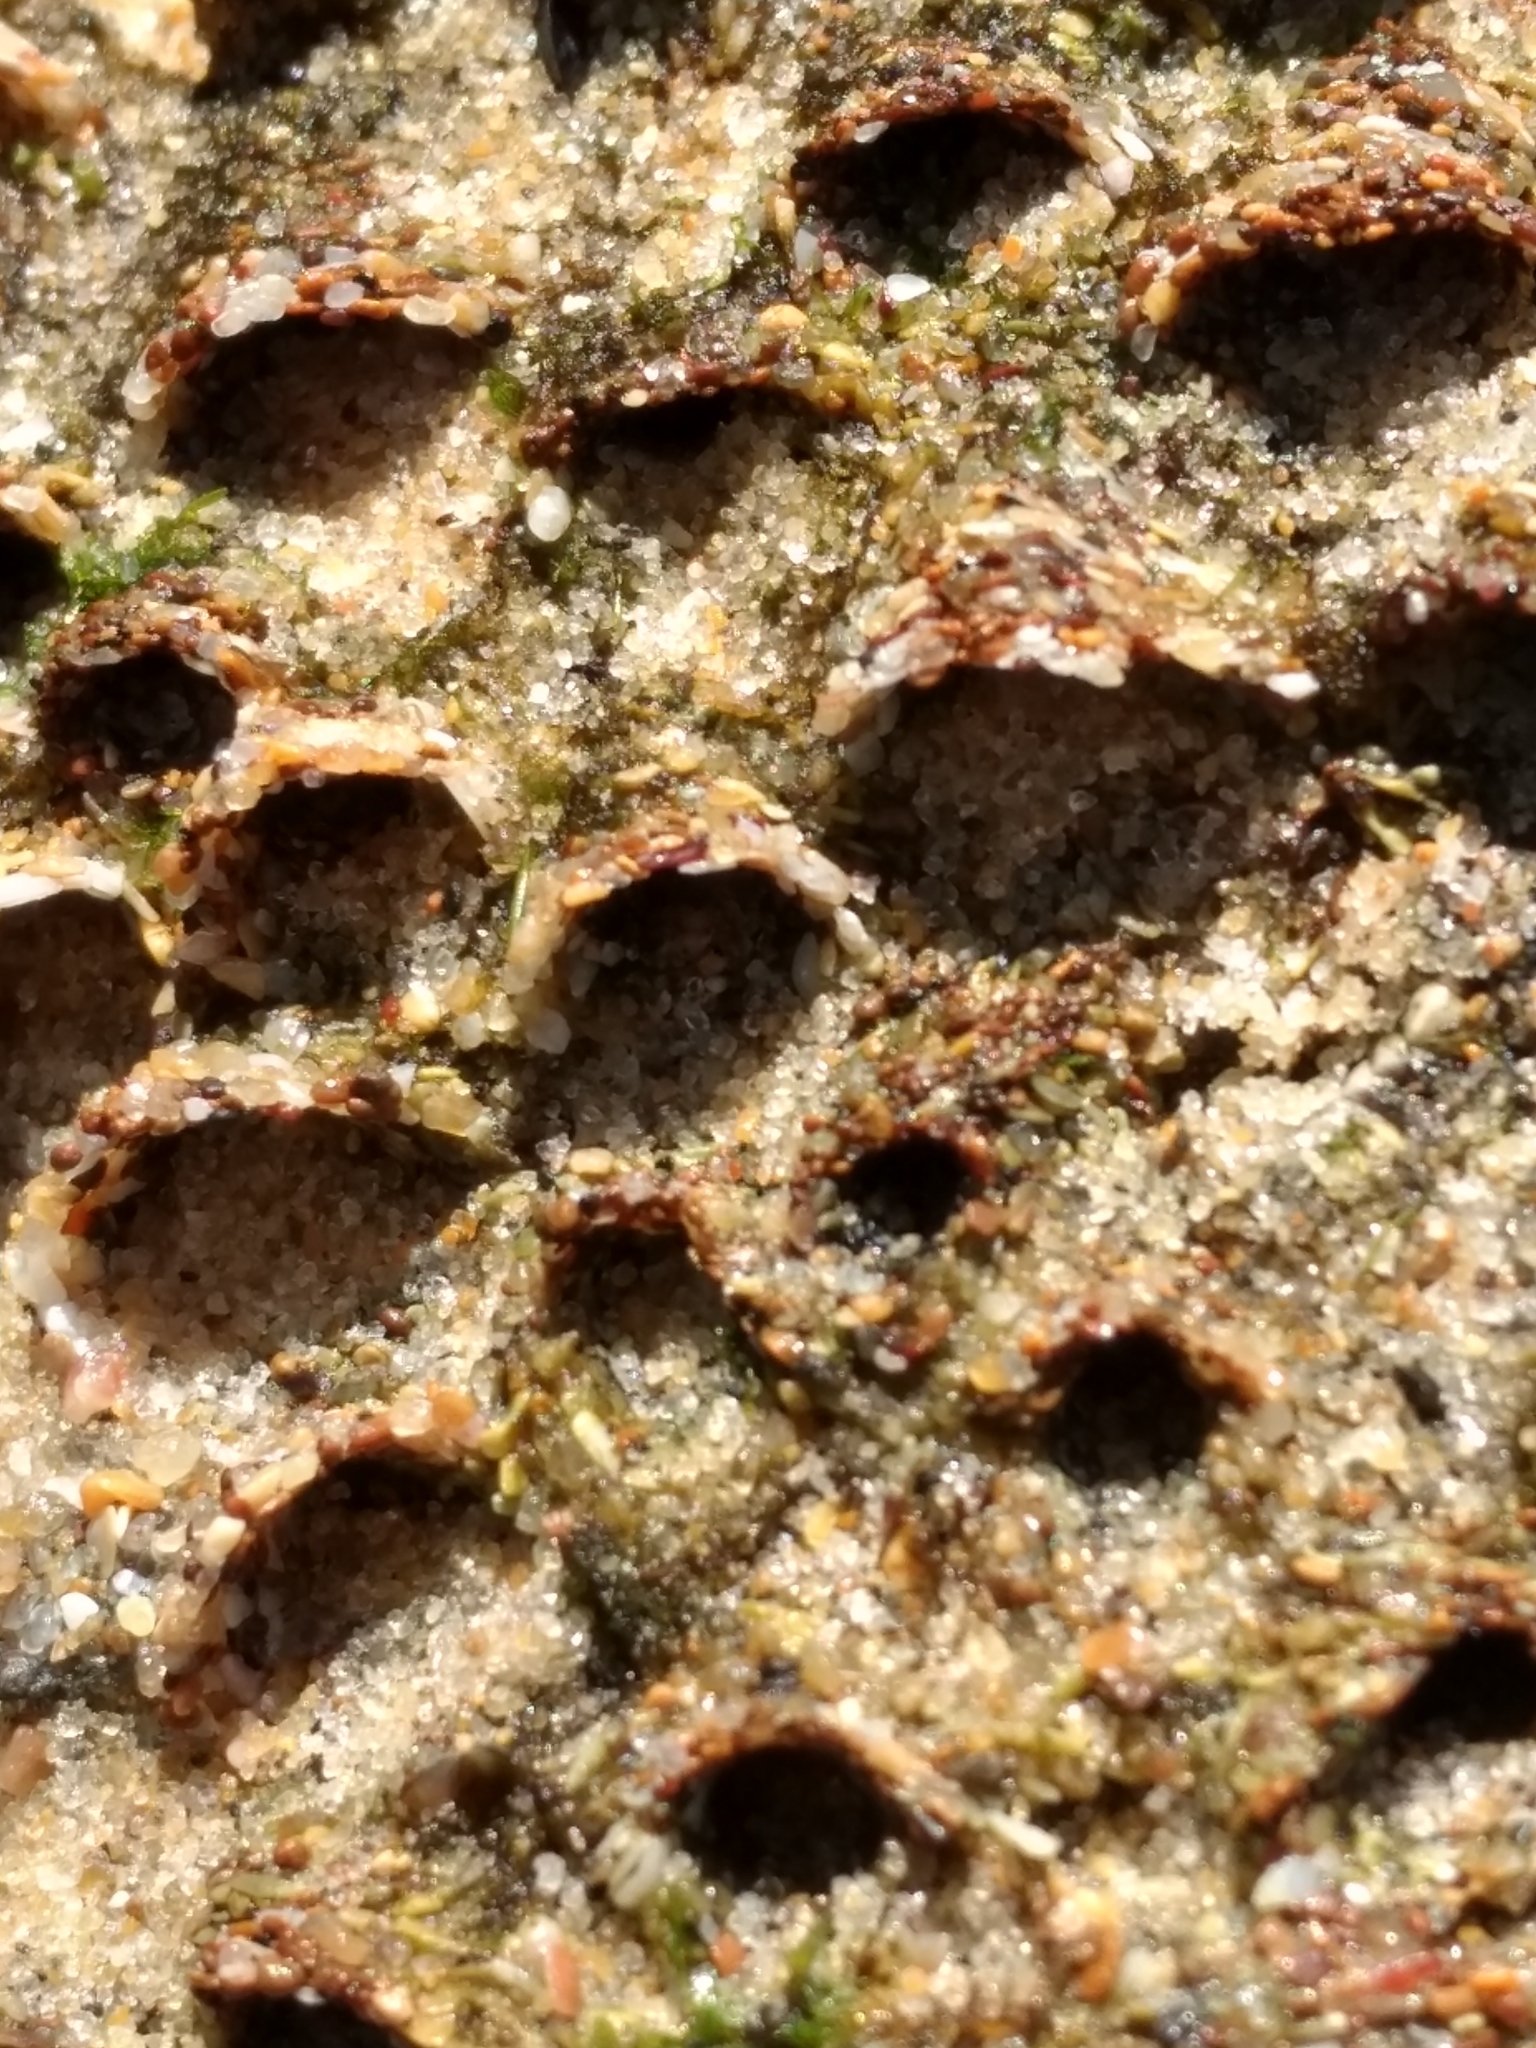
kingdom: Animalia
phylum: Annelida
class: Polychaeta
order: Sabellida
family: Sabellariidae
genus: Phragmatopoma
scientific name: Phragmatopoma californica
